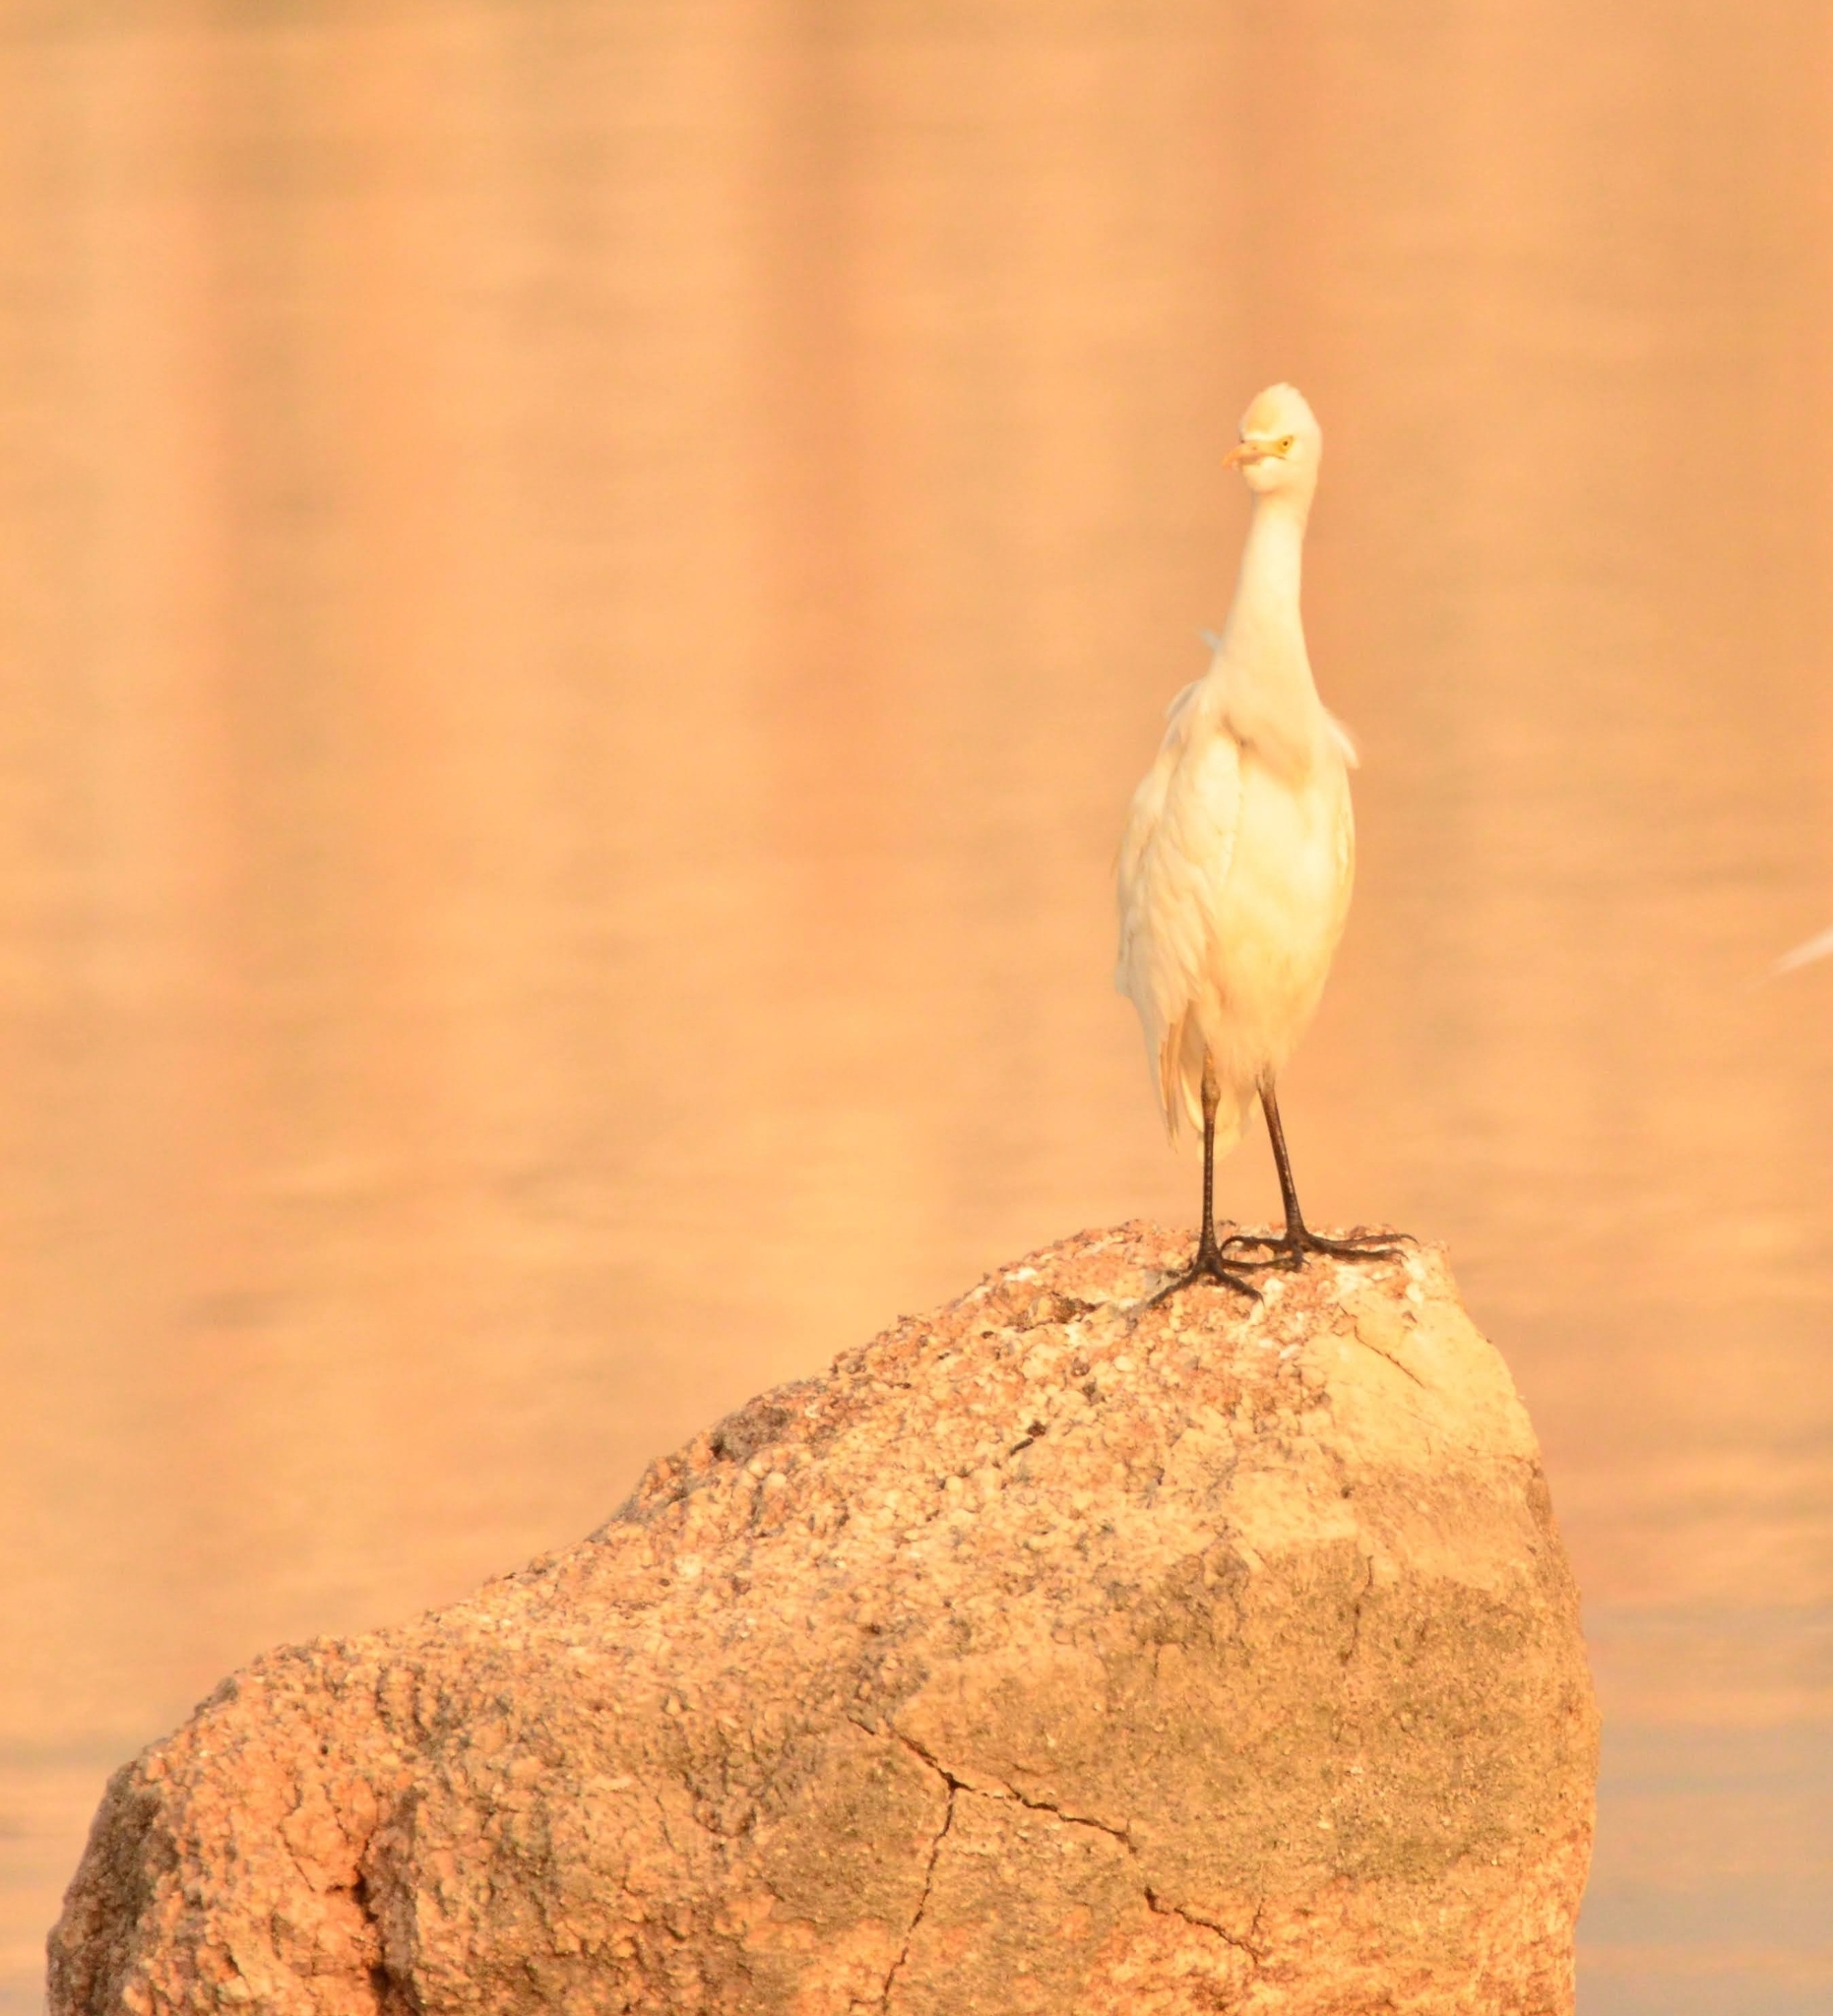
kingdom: Animalia
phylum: Chordata
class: Aves
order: Pelecaniformes
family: Ardeidae
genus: Bubulcus
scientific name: Bubulcus coromandus
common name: Eastern cattle egret
